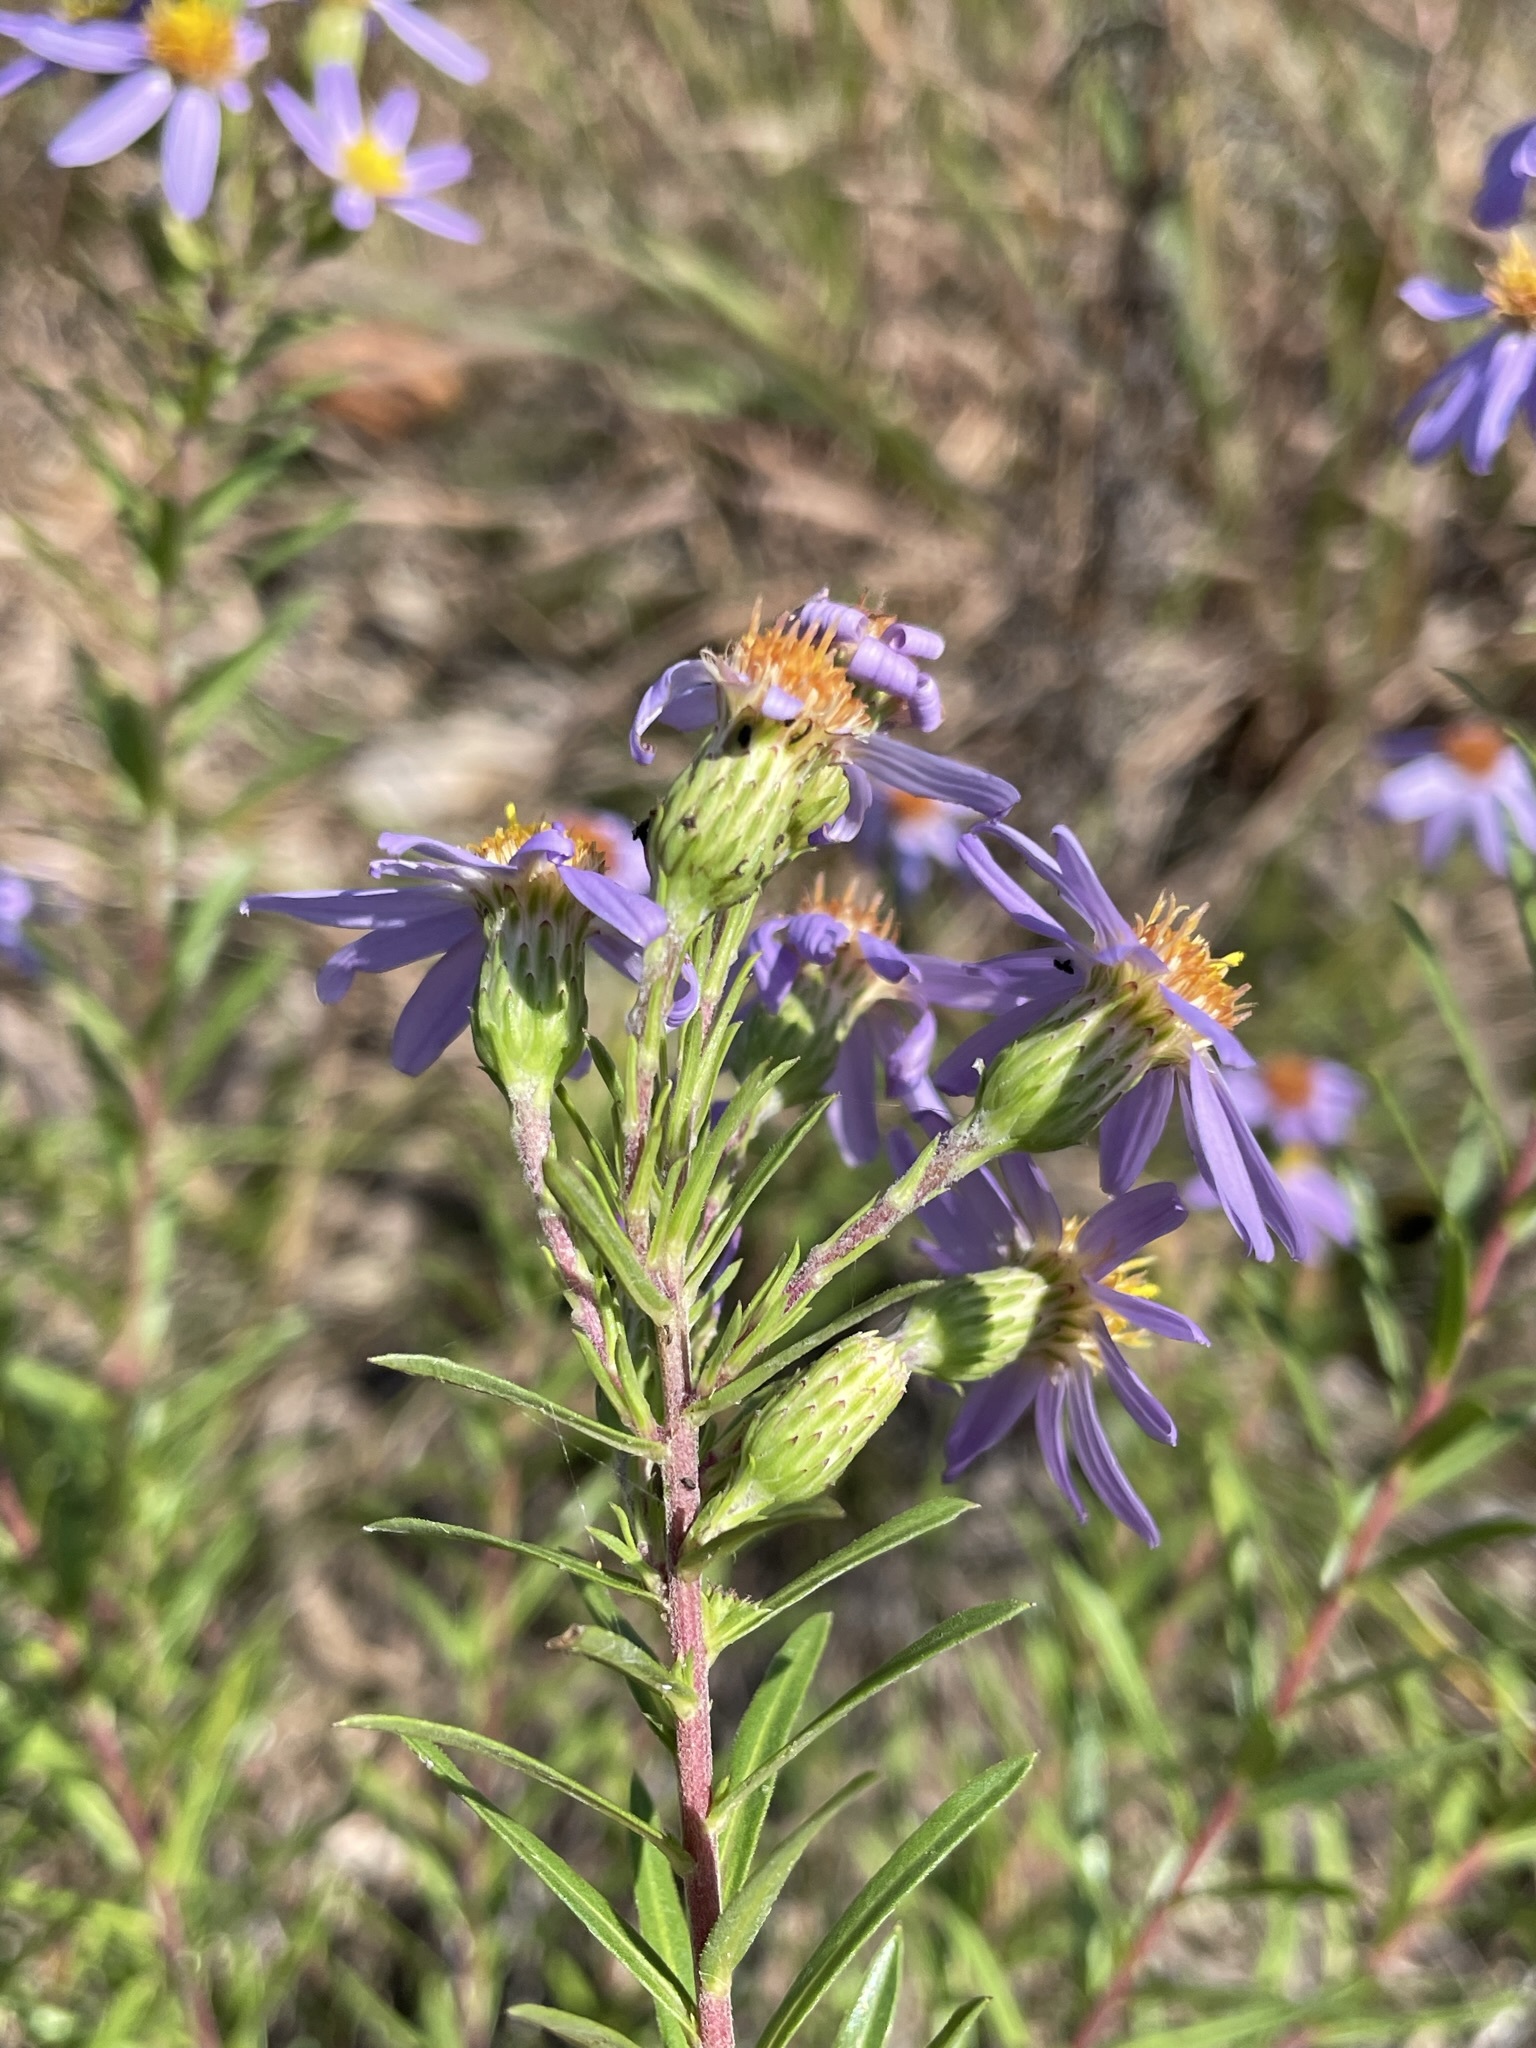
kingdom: Plantae
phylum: Tracheophyta
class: Magnoliopsida
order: Asterales
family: Asteraceae
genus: Ionactis
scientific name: Ionactis linariifolia
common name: Flax-leaf aster
